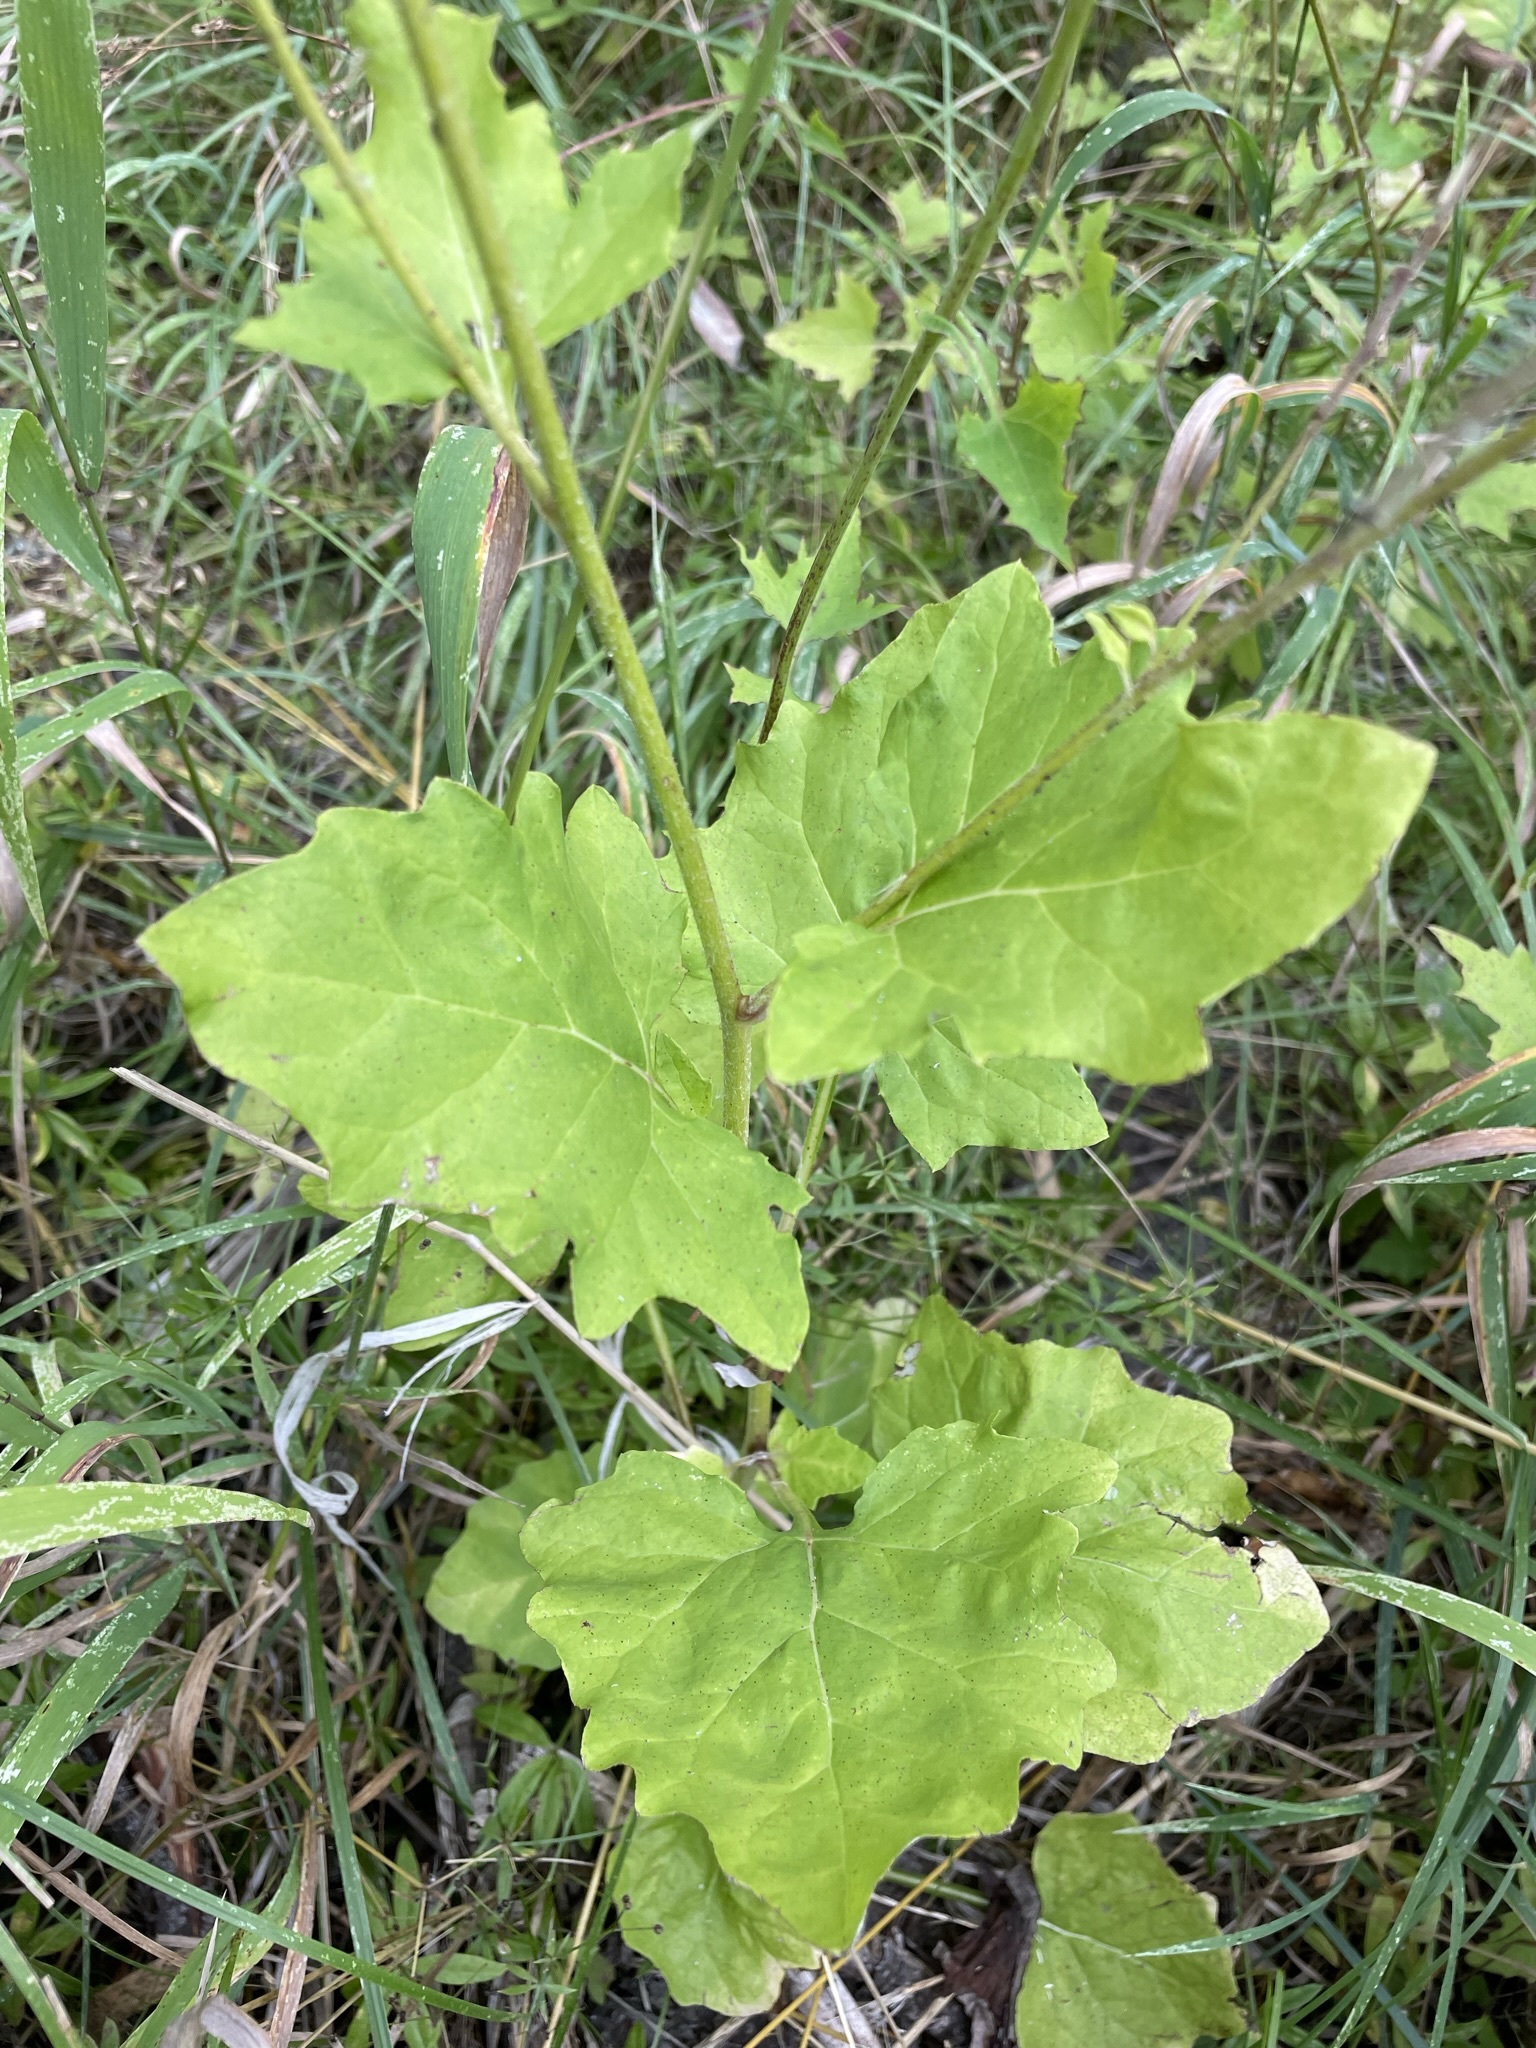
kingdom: Plantae
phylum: Tracheophyta
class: Magnoliopsida
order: Asterales
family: Asteraceae
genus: Adenocaulon
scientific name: Adenocaulon bicolor
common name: Trailplant
